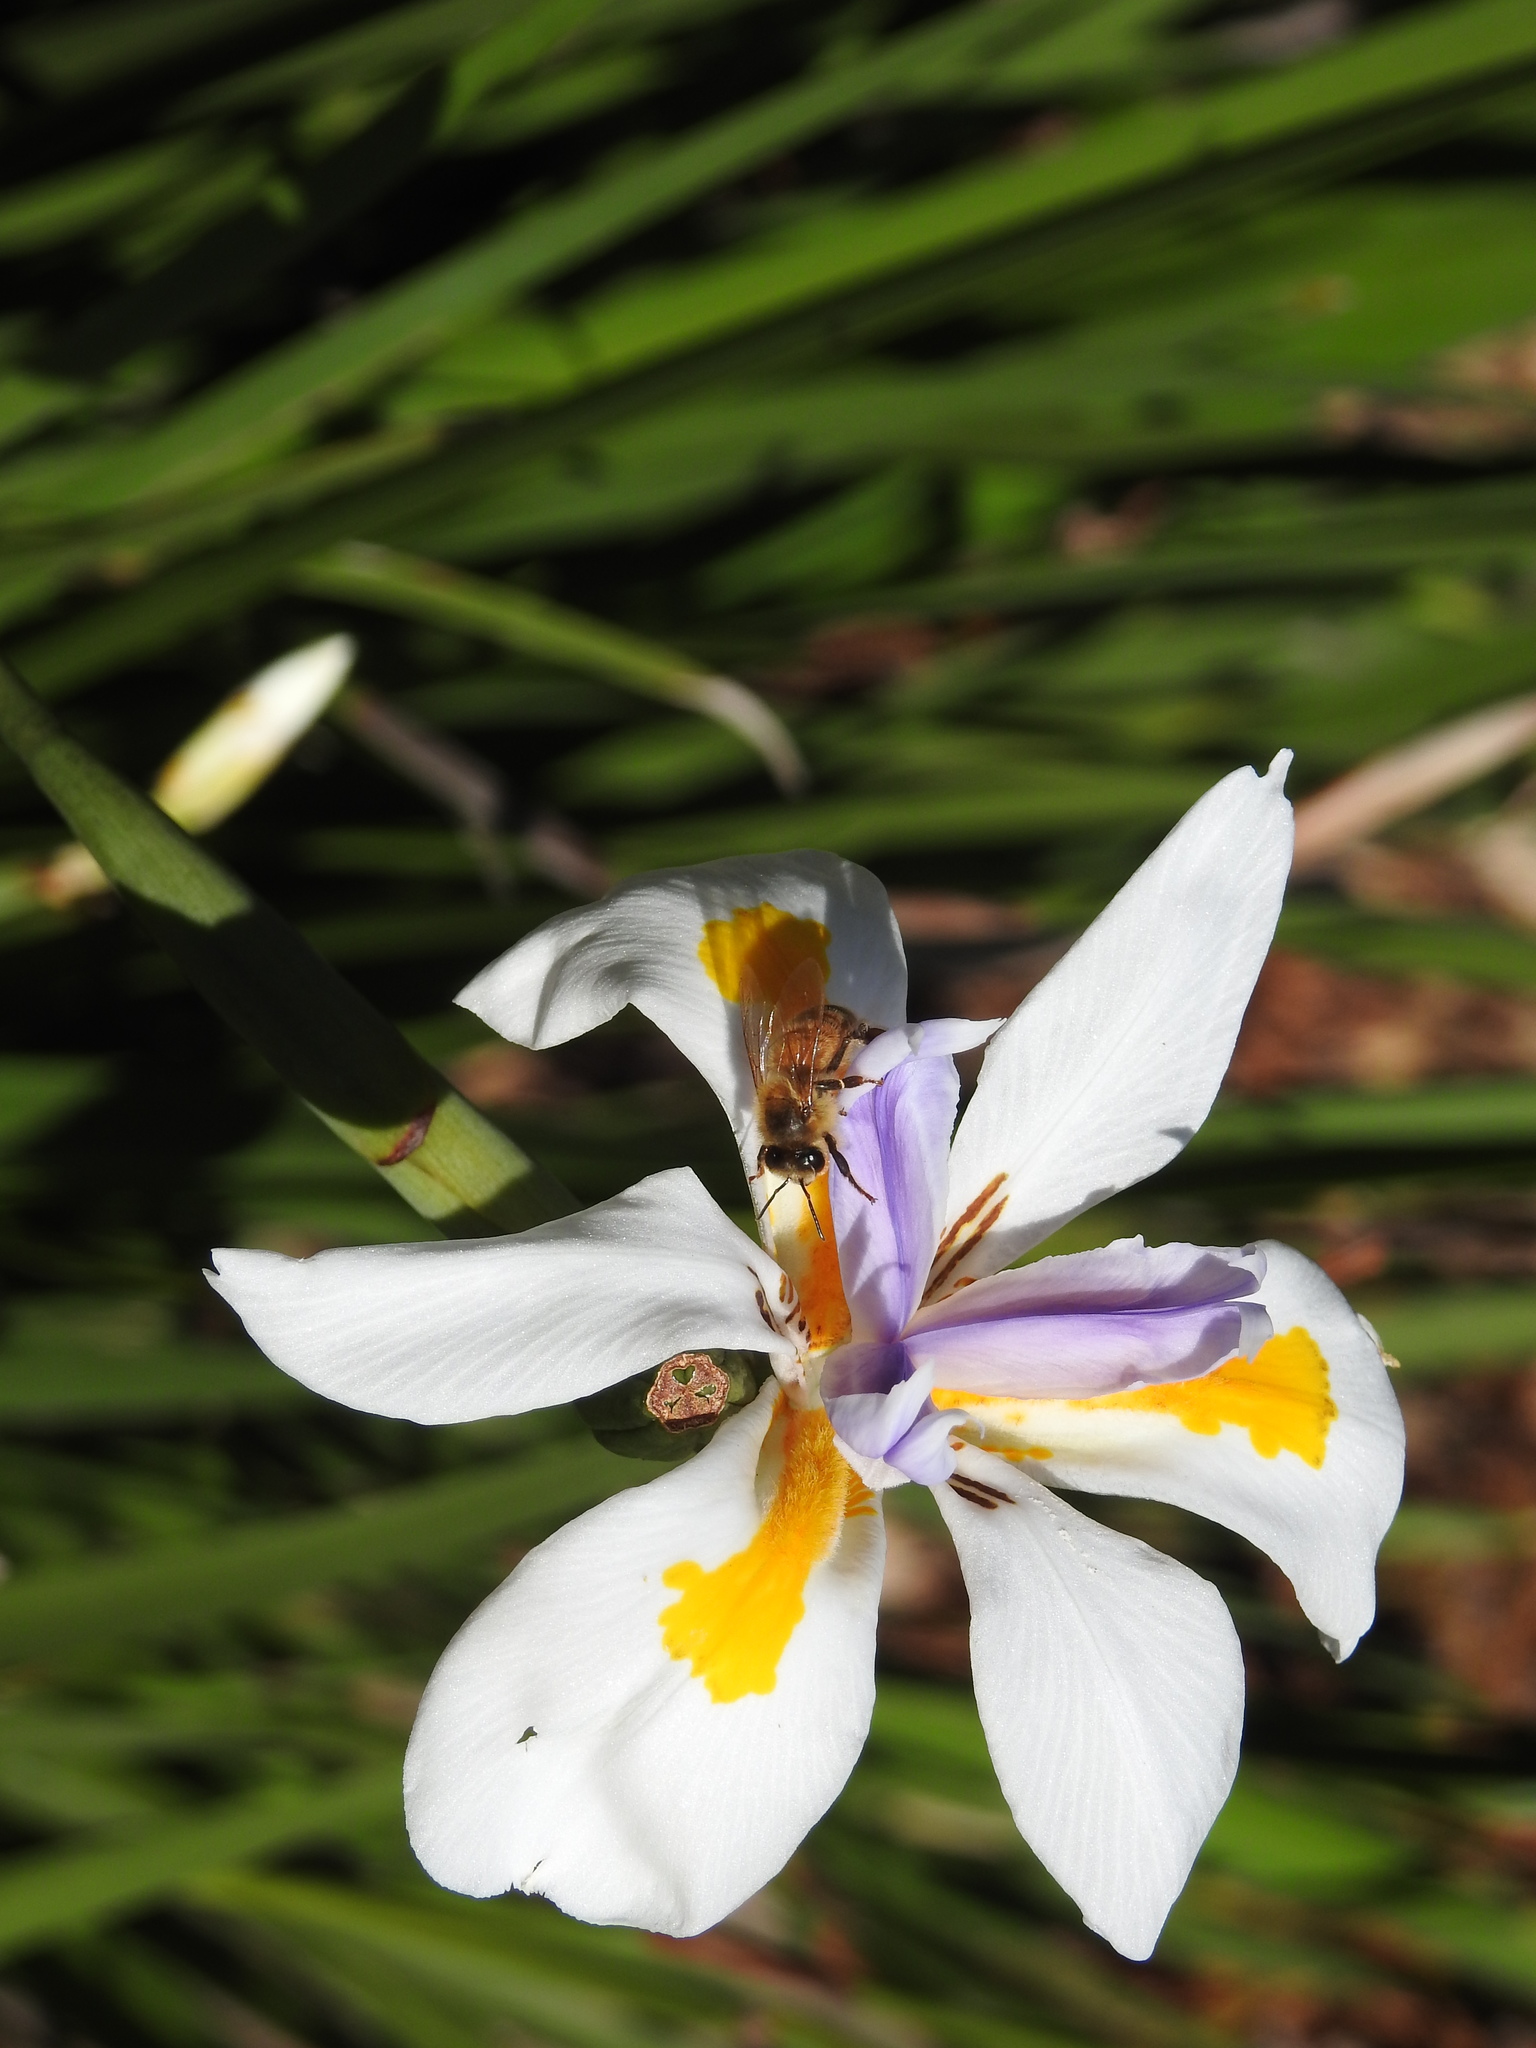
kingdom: Animalia
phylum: Arthropoda
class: Insecta
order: Hymenoptera
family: Apidae
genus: Apis
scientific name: Apis mellifera
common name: Honey bee
